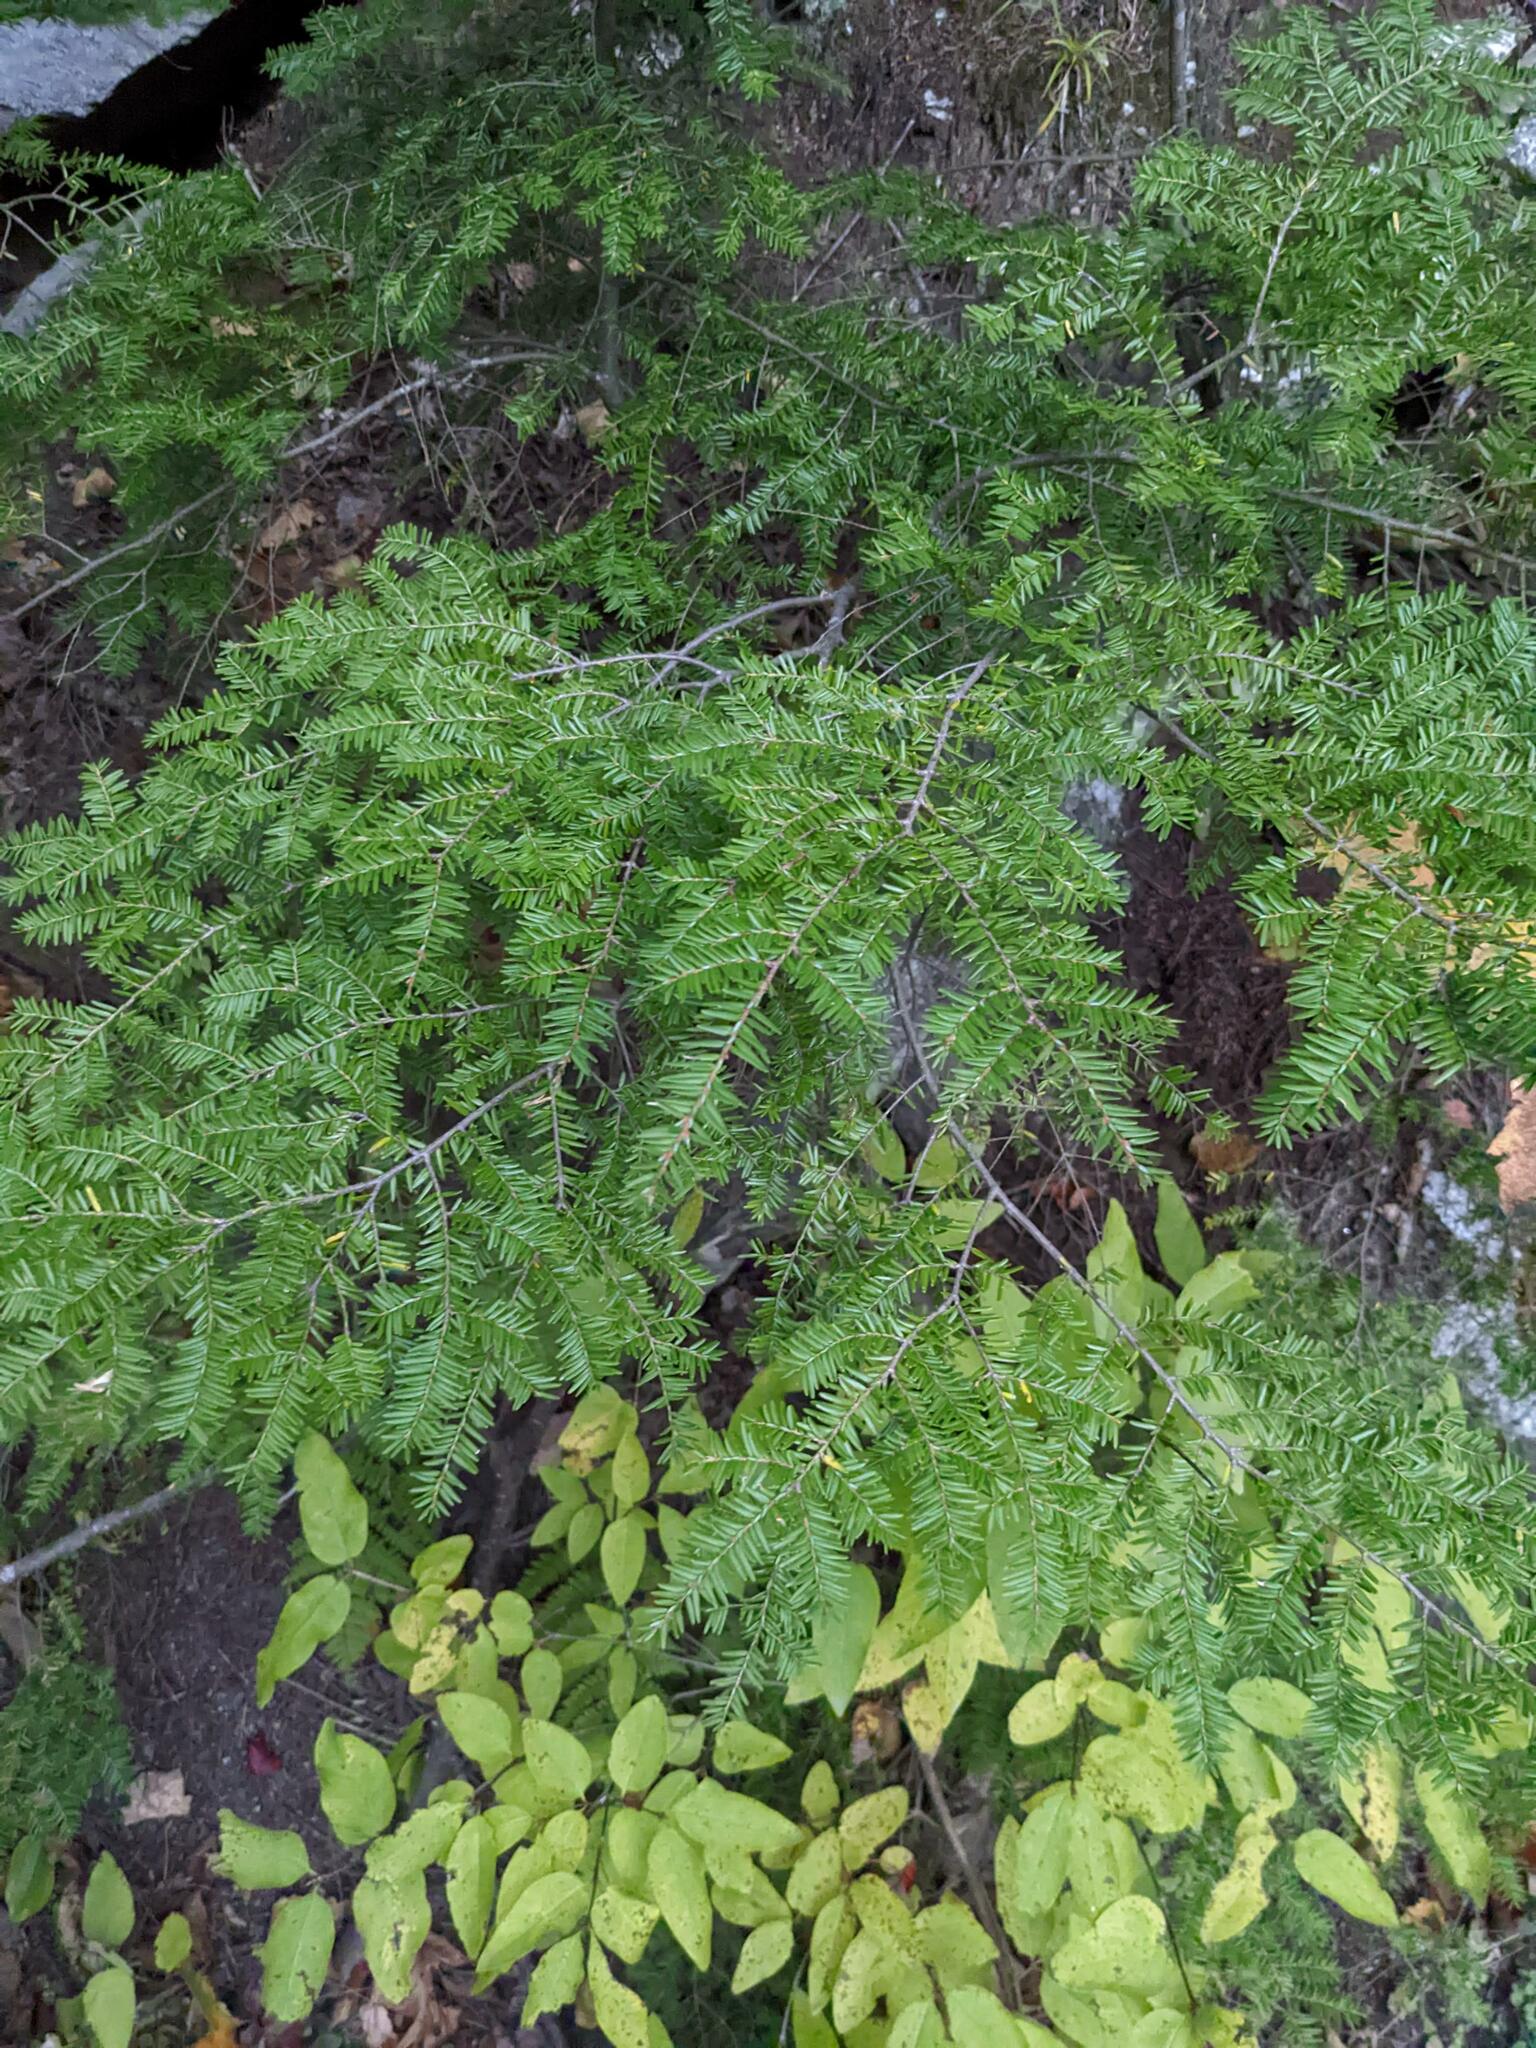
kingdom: Plantae
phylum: Tracheophyta
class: Pinopsida
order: Pinales
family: Pinaceae
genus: Tsuga
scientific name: Tsuga canadensis
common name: Eastern hemlock
